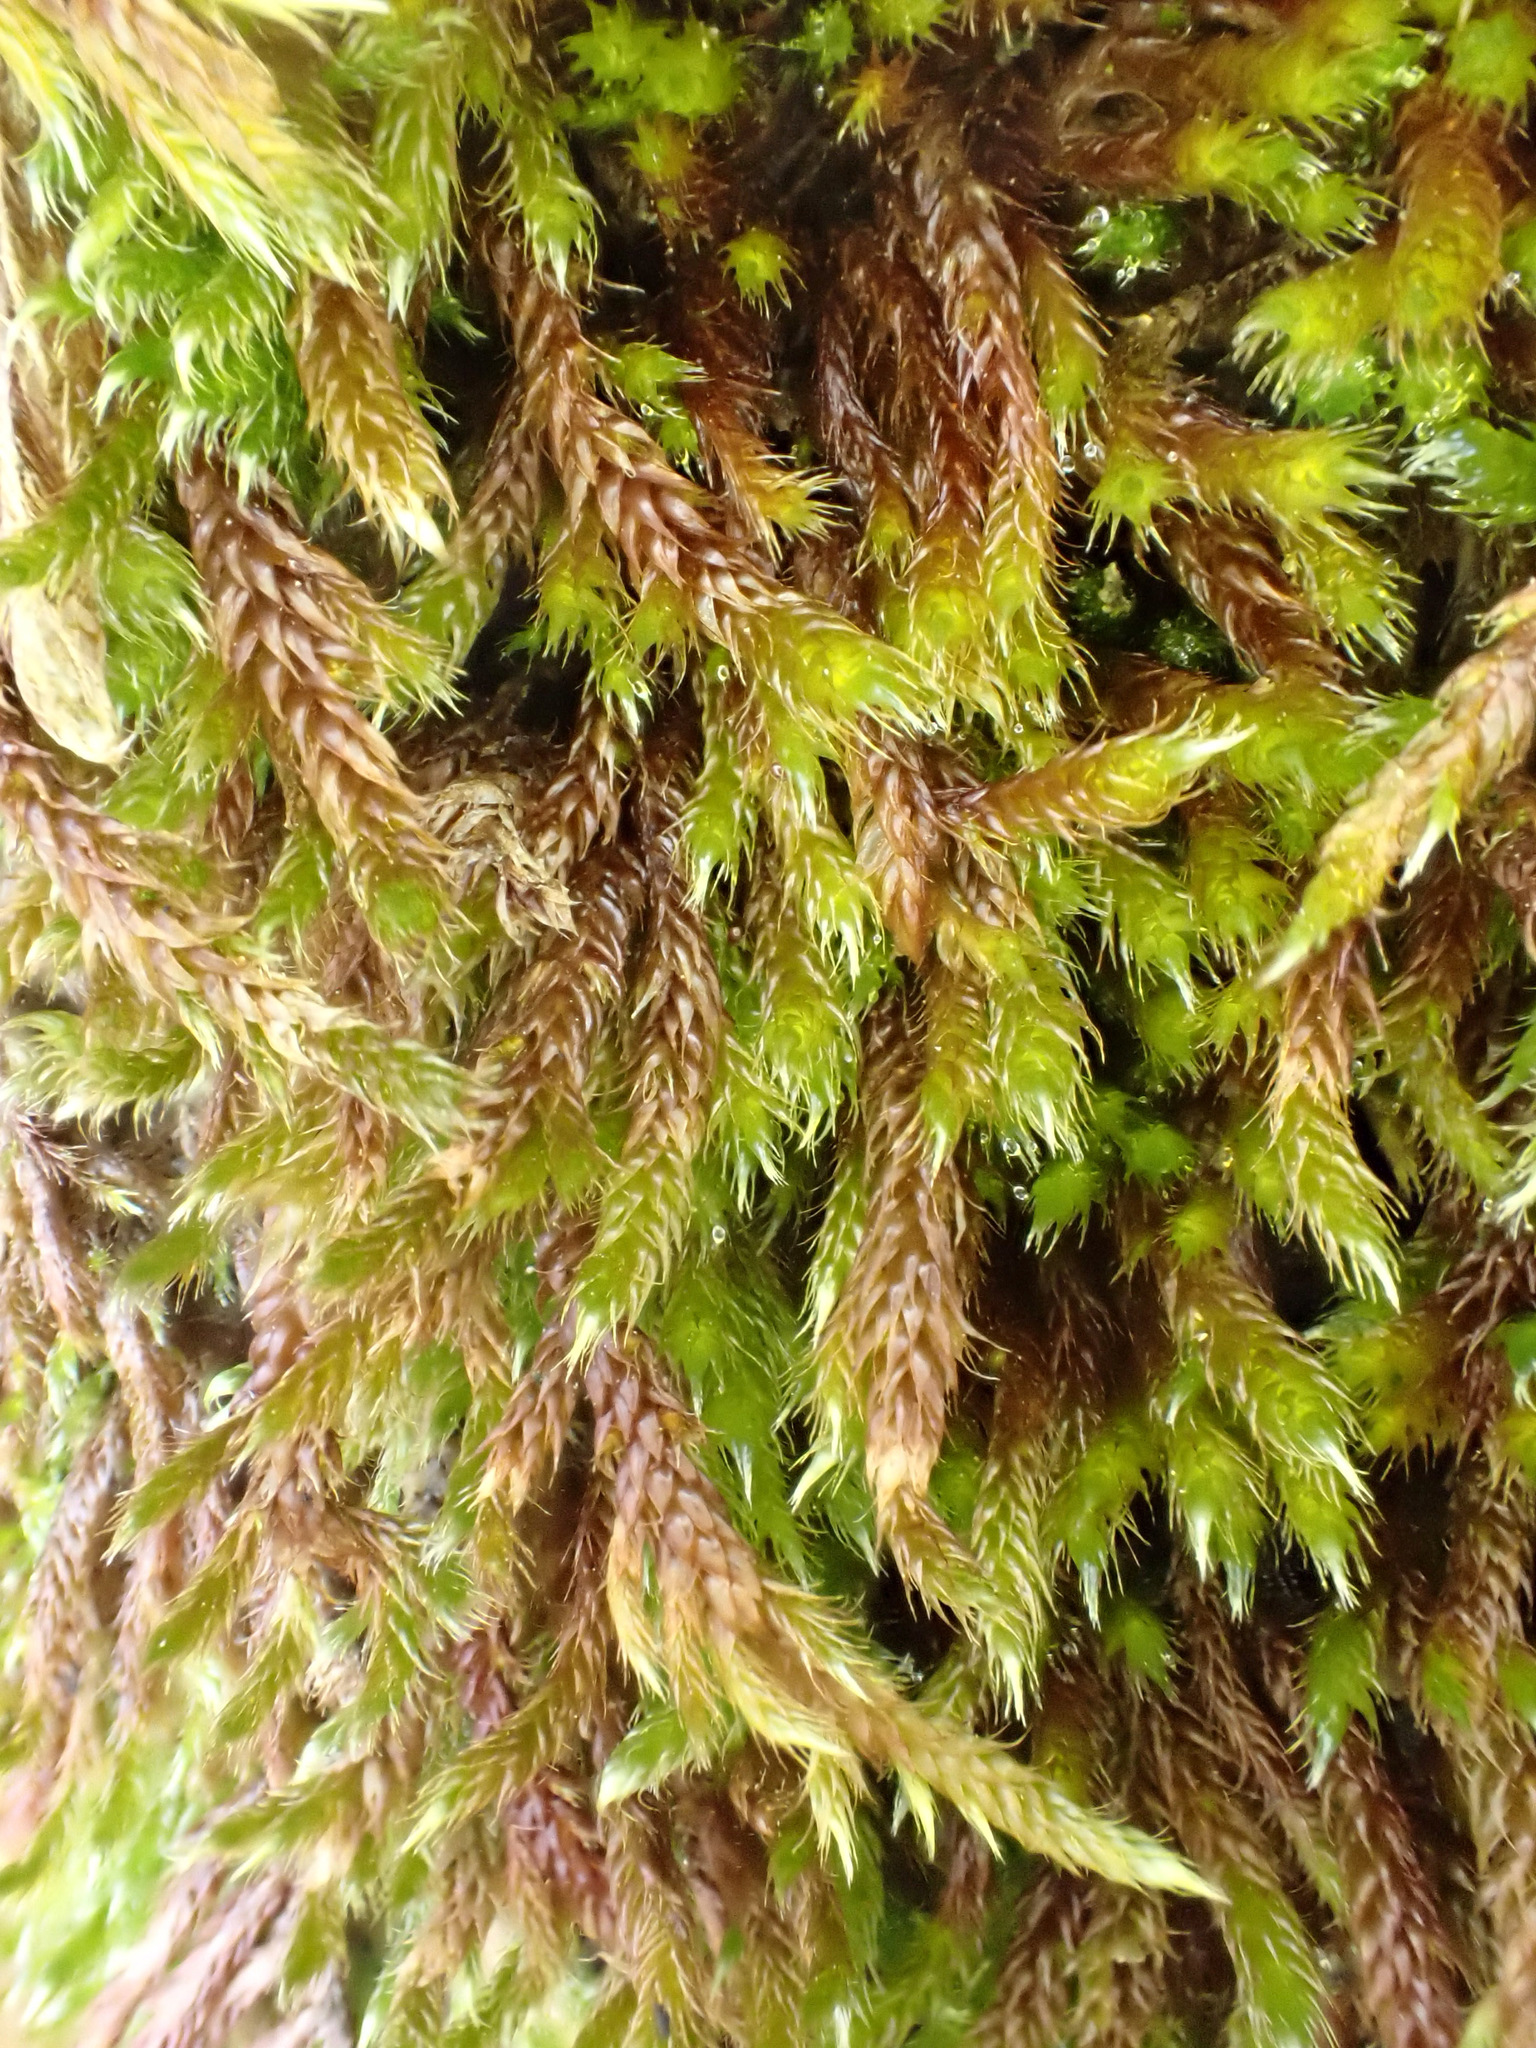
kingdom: Plantae
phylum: Bryophyta
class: Bryopsida
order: Hypnales
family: Brachytheciaceae
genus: Homalothecium
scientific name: Homalothecium sericeum
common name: Silky wall feather-moss
